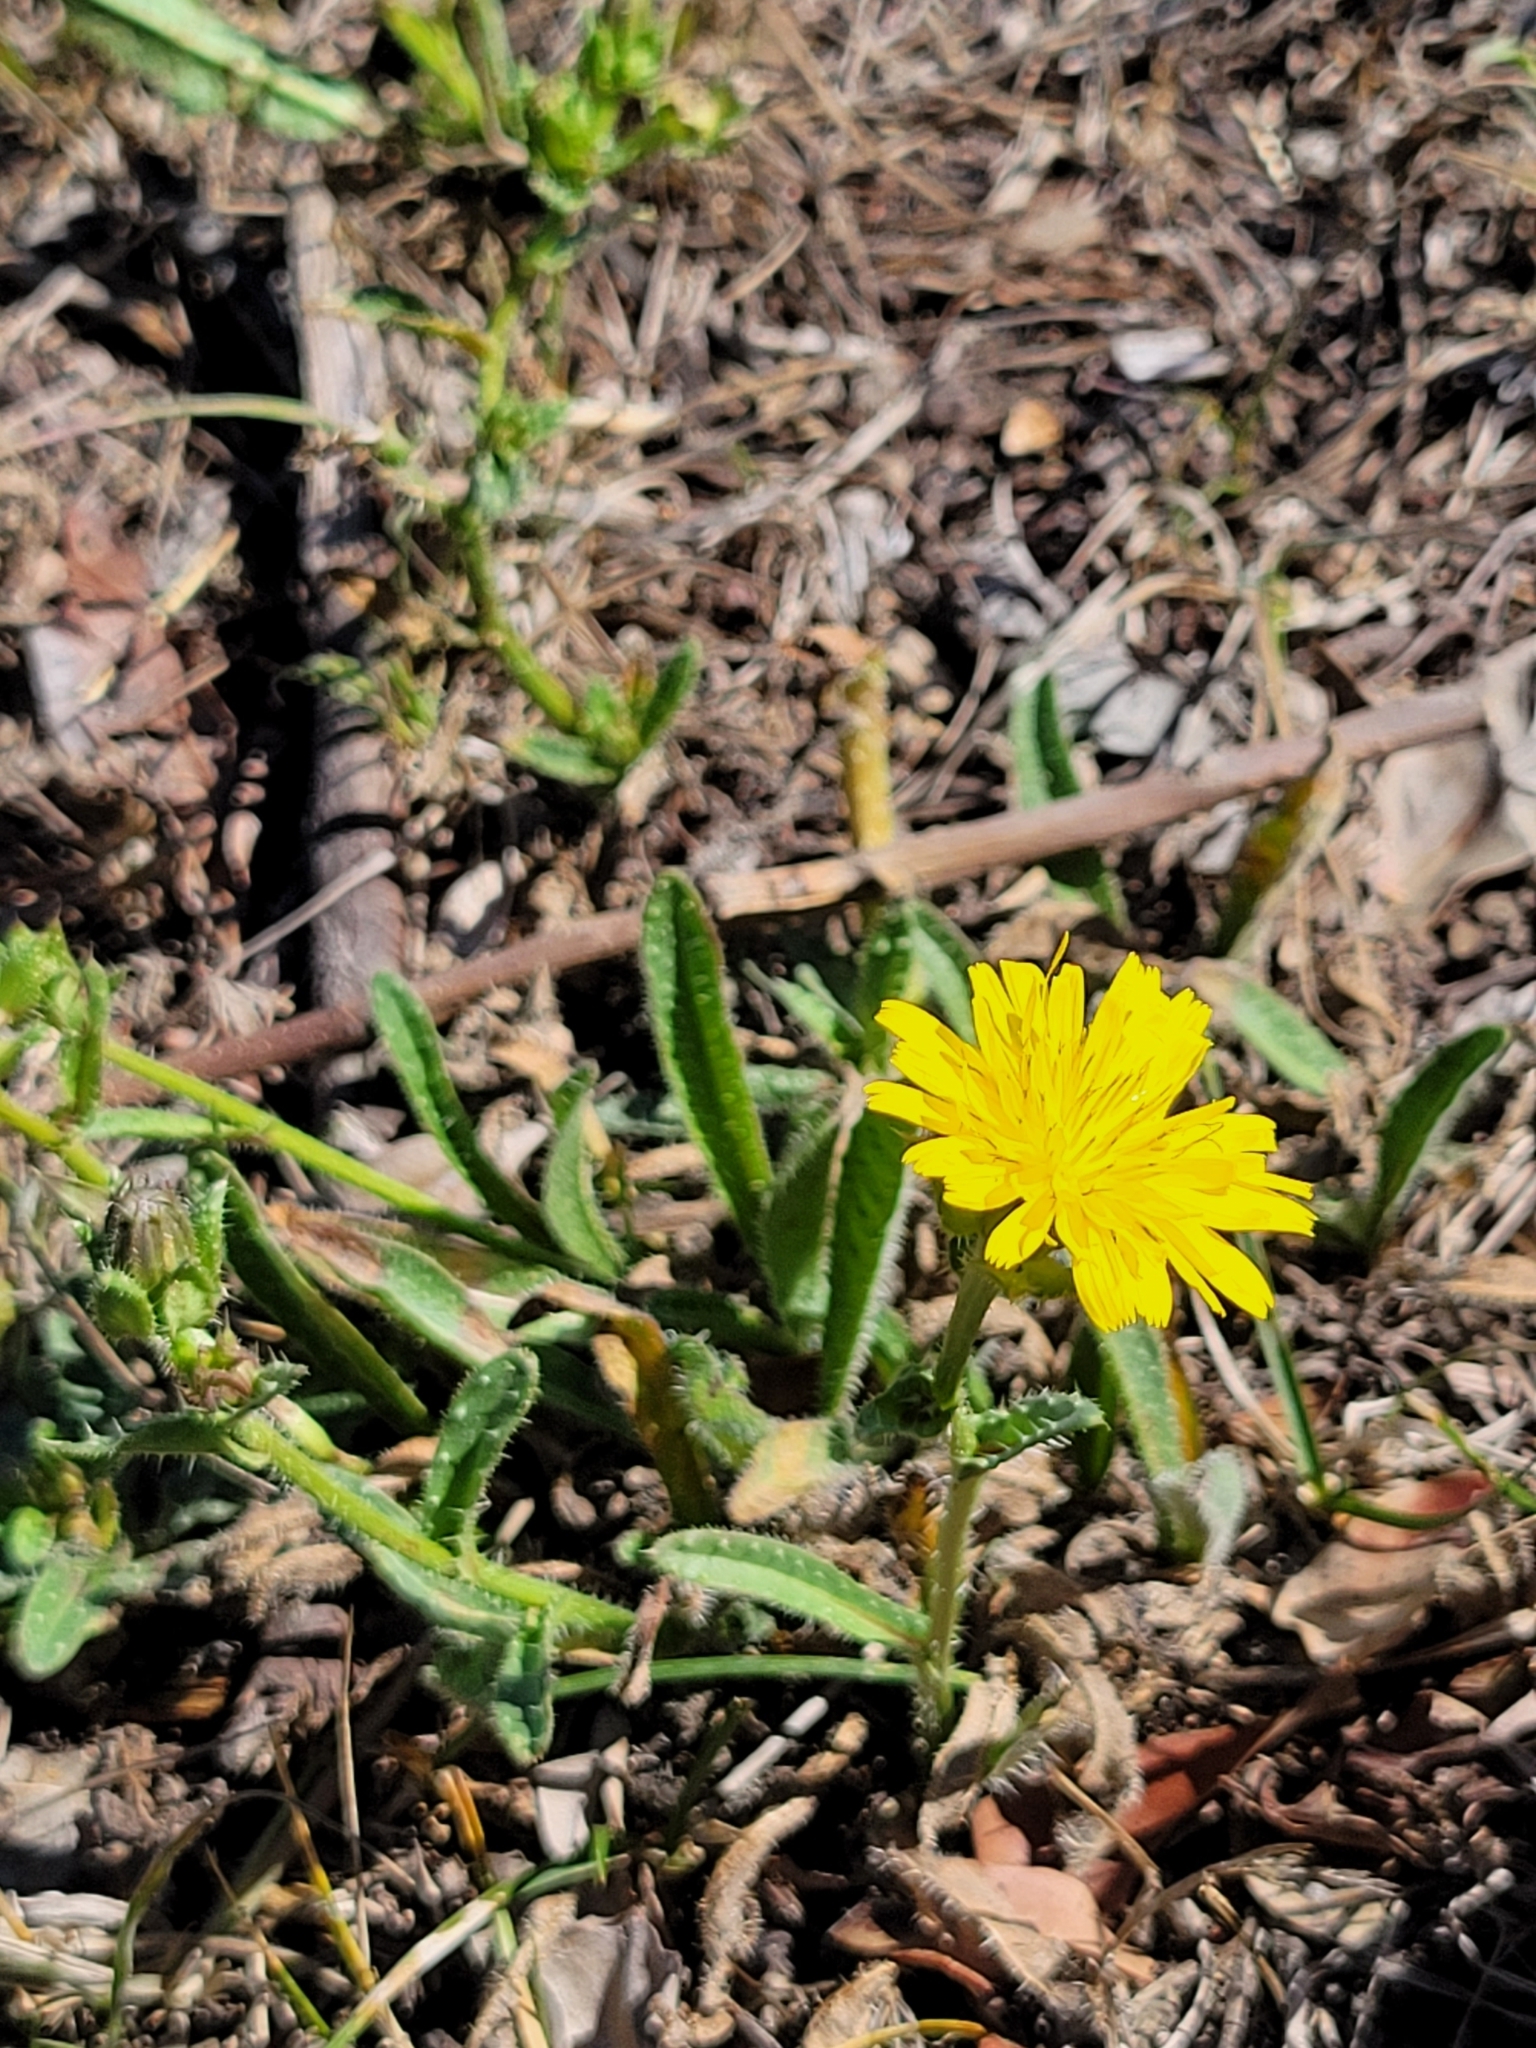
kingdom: Plantae
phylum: Tracheophyta
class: Magnoliopsida
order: Asterales
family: Asteraceae
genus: Helminthotheca
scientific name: Helminthotheca echioides
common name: Ox-tongue
